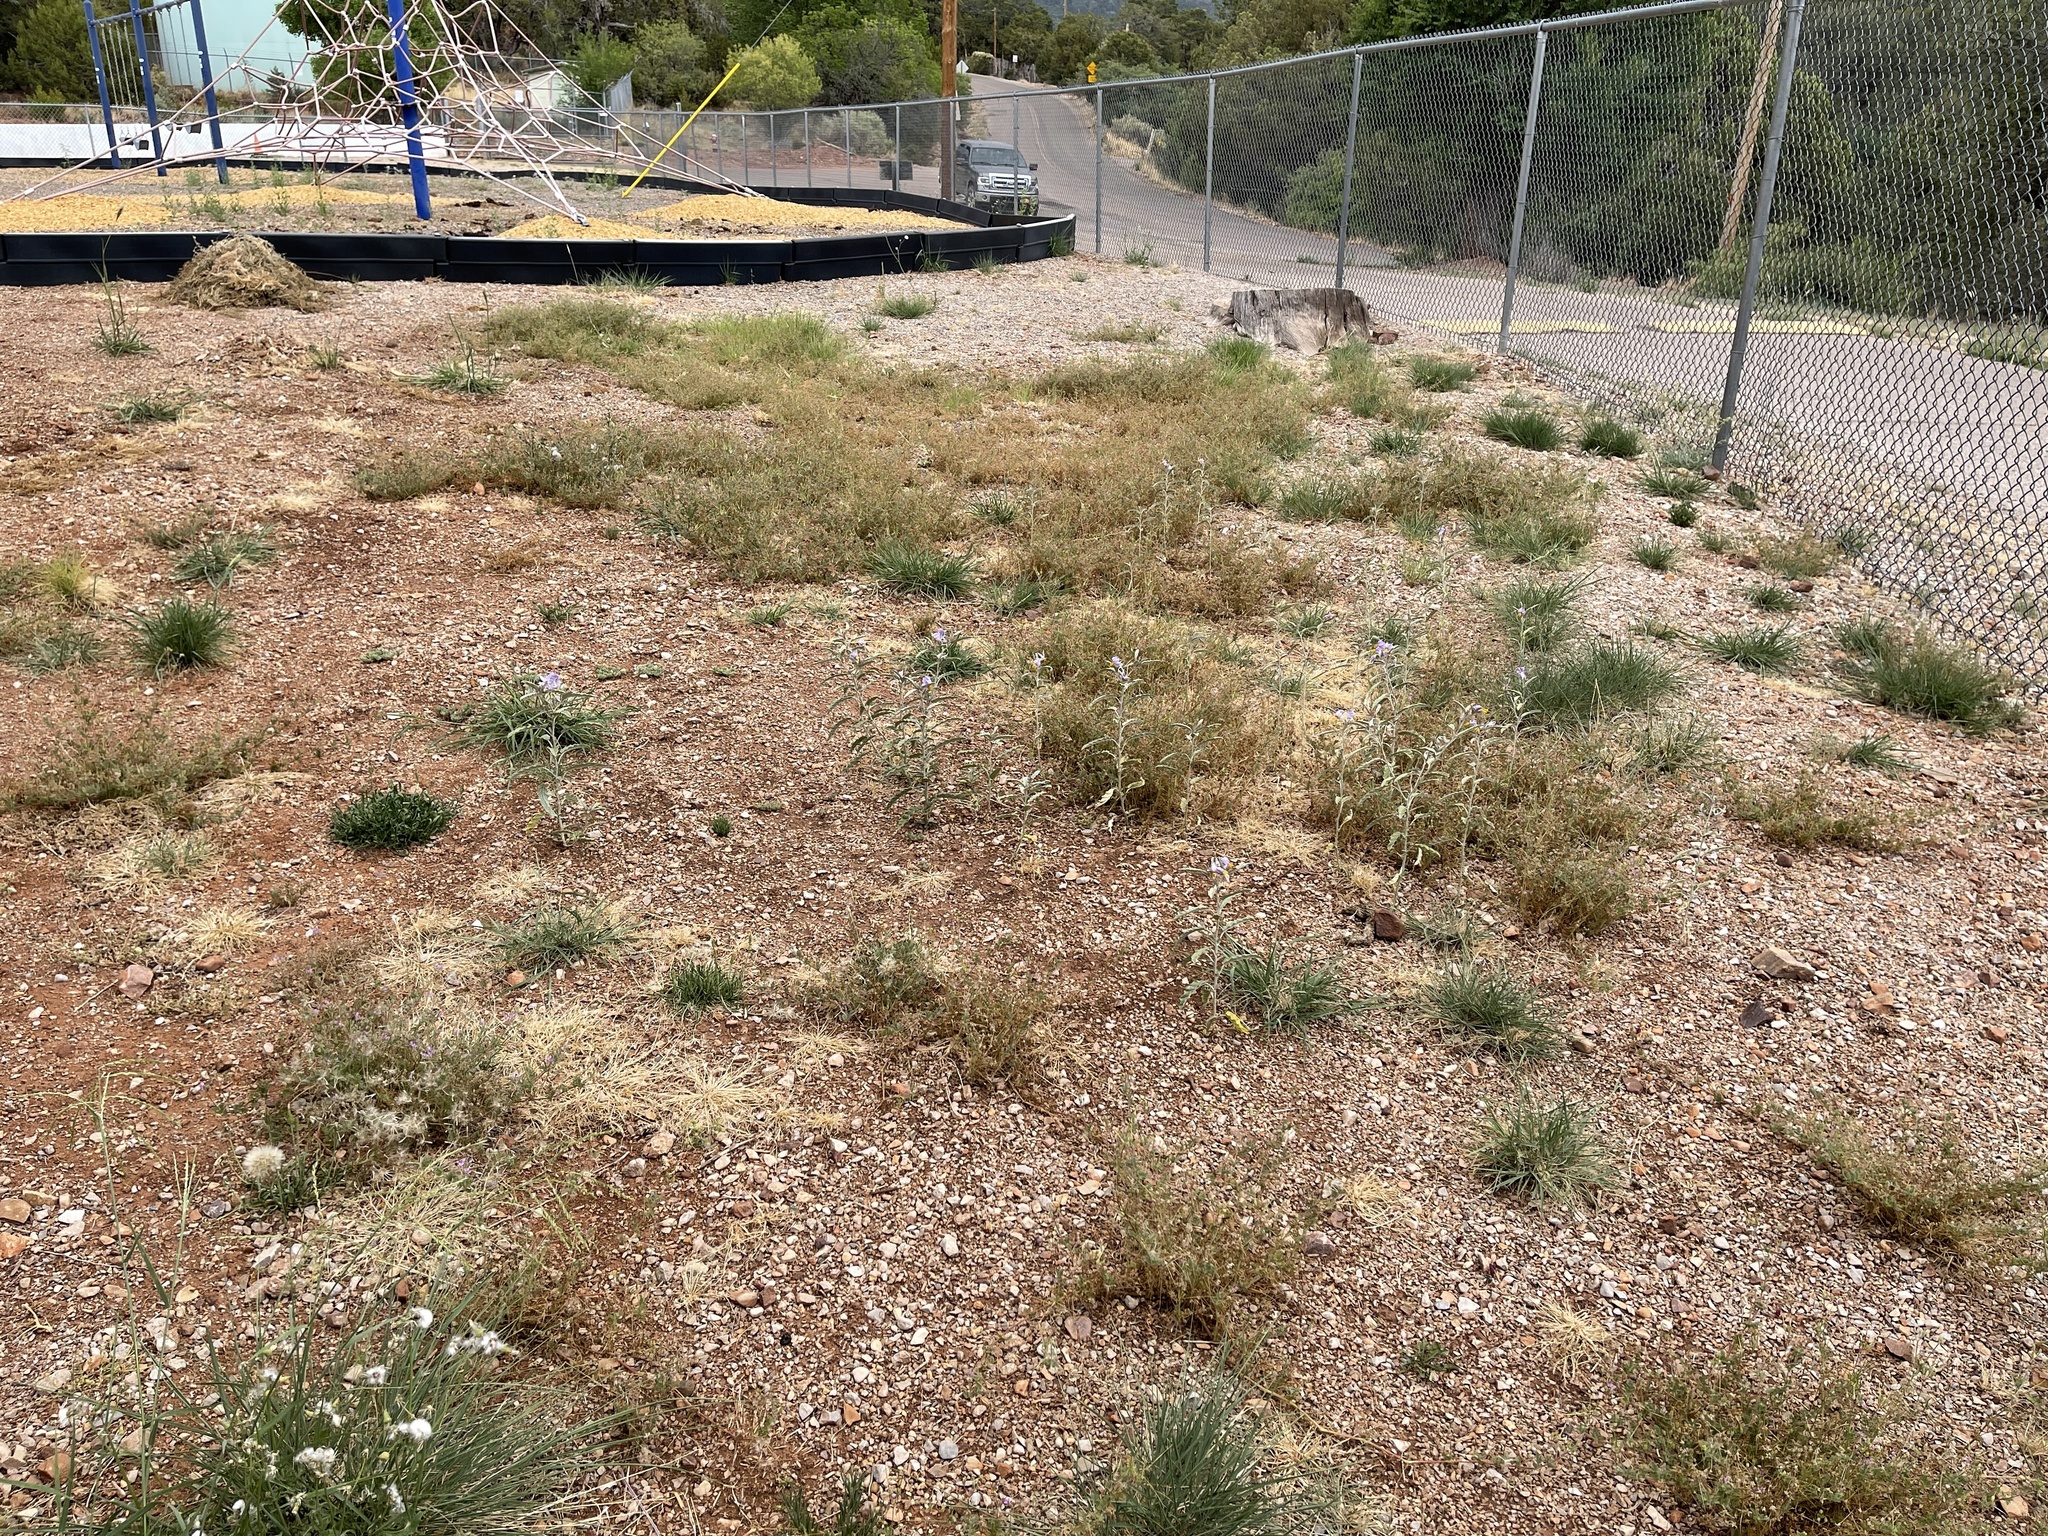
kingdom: Plantae
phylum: Tracheophyta
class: Magnoliopsida
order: Solanales
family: Solanaceae
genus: Solanum
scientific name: Solanum elaeagnifolium
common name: Silverleaf nightshade
